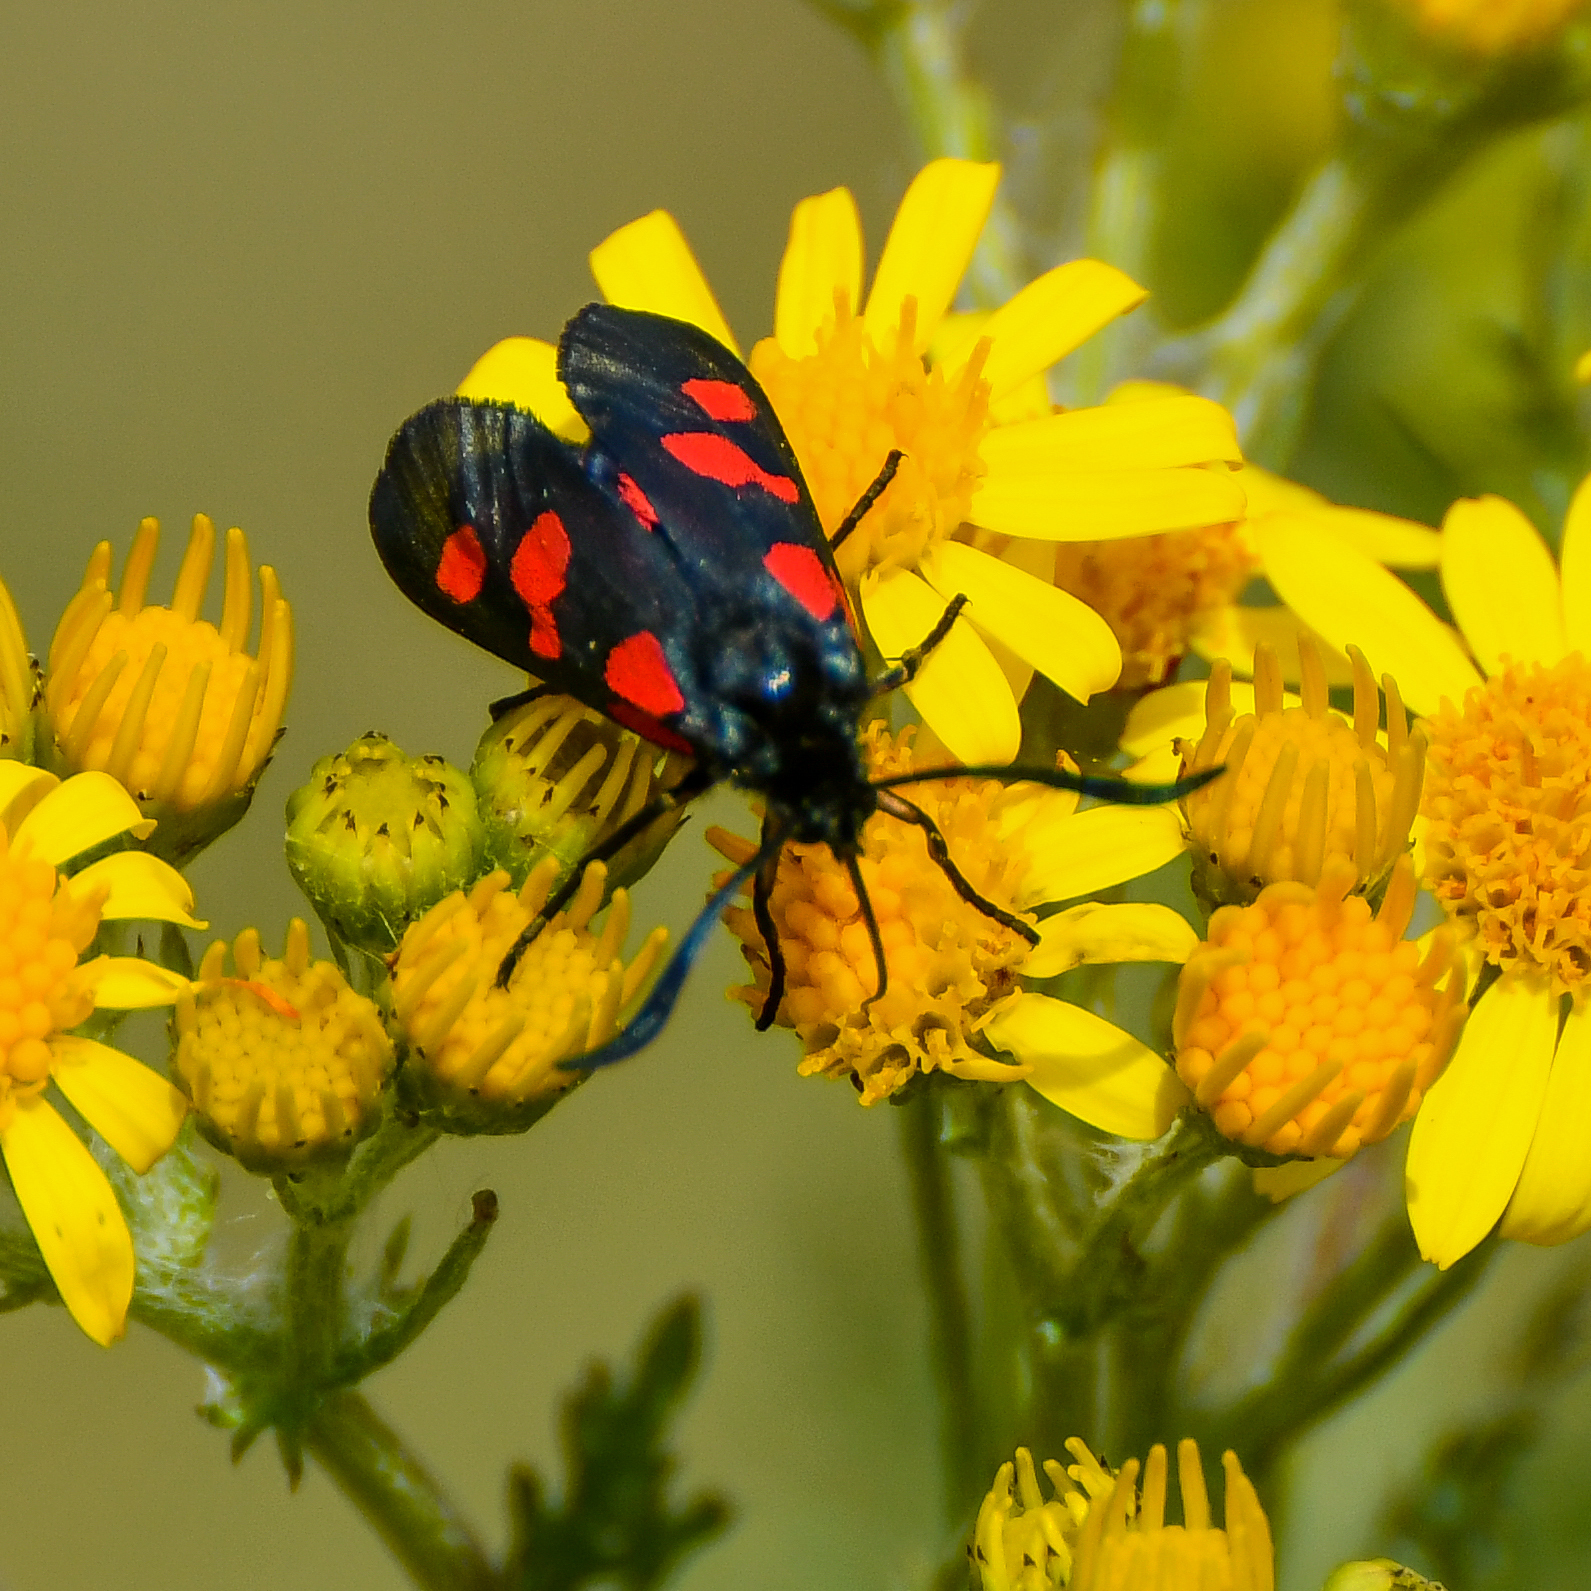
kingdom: Animalia
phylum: Arthropoda
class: Insecta
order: Lepidoptera
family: Zygaenidae
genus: Zygaena
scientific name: Zygaena trifolii
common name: Five-spot burnet
